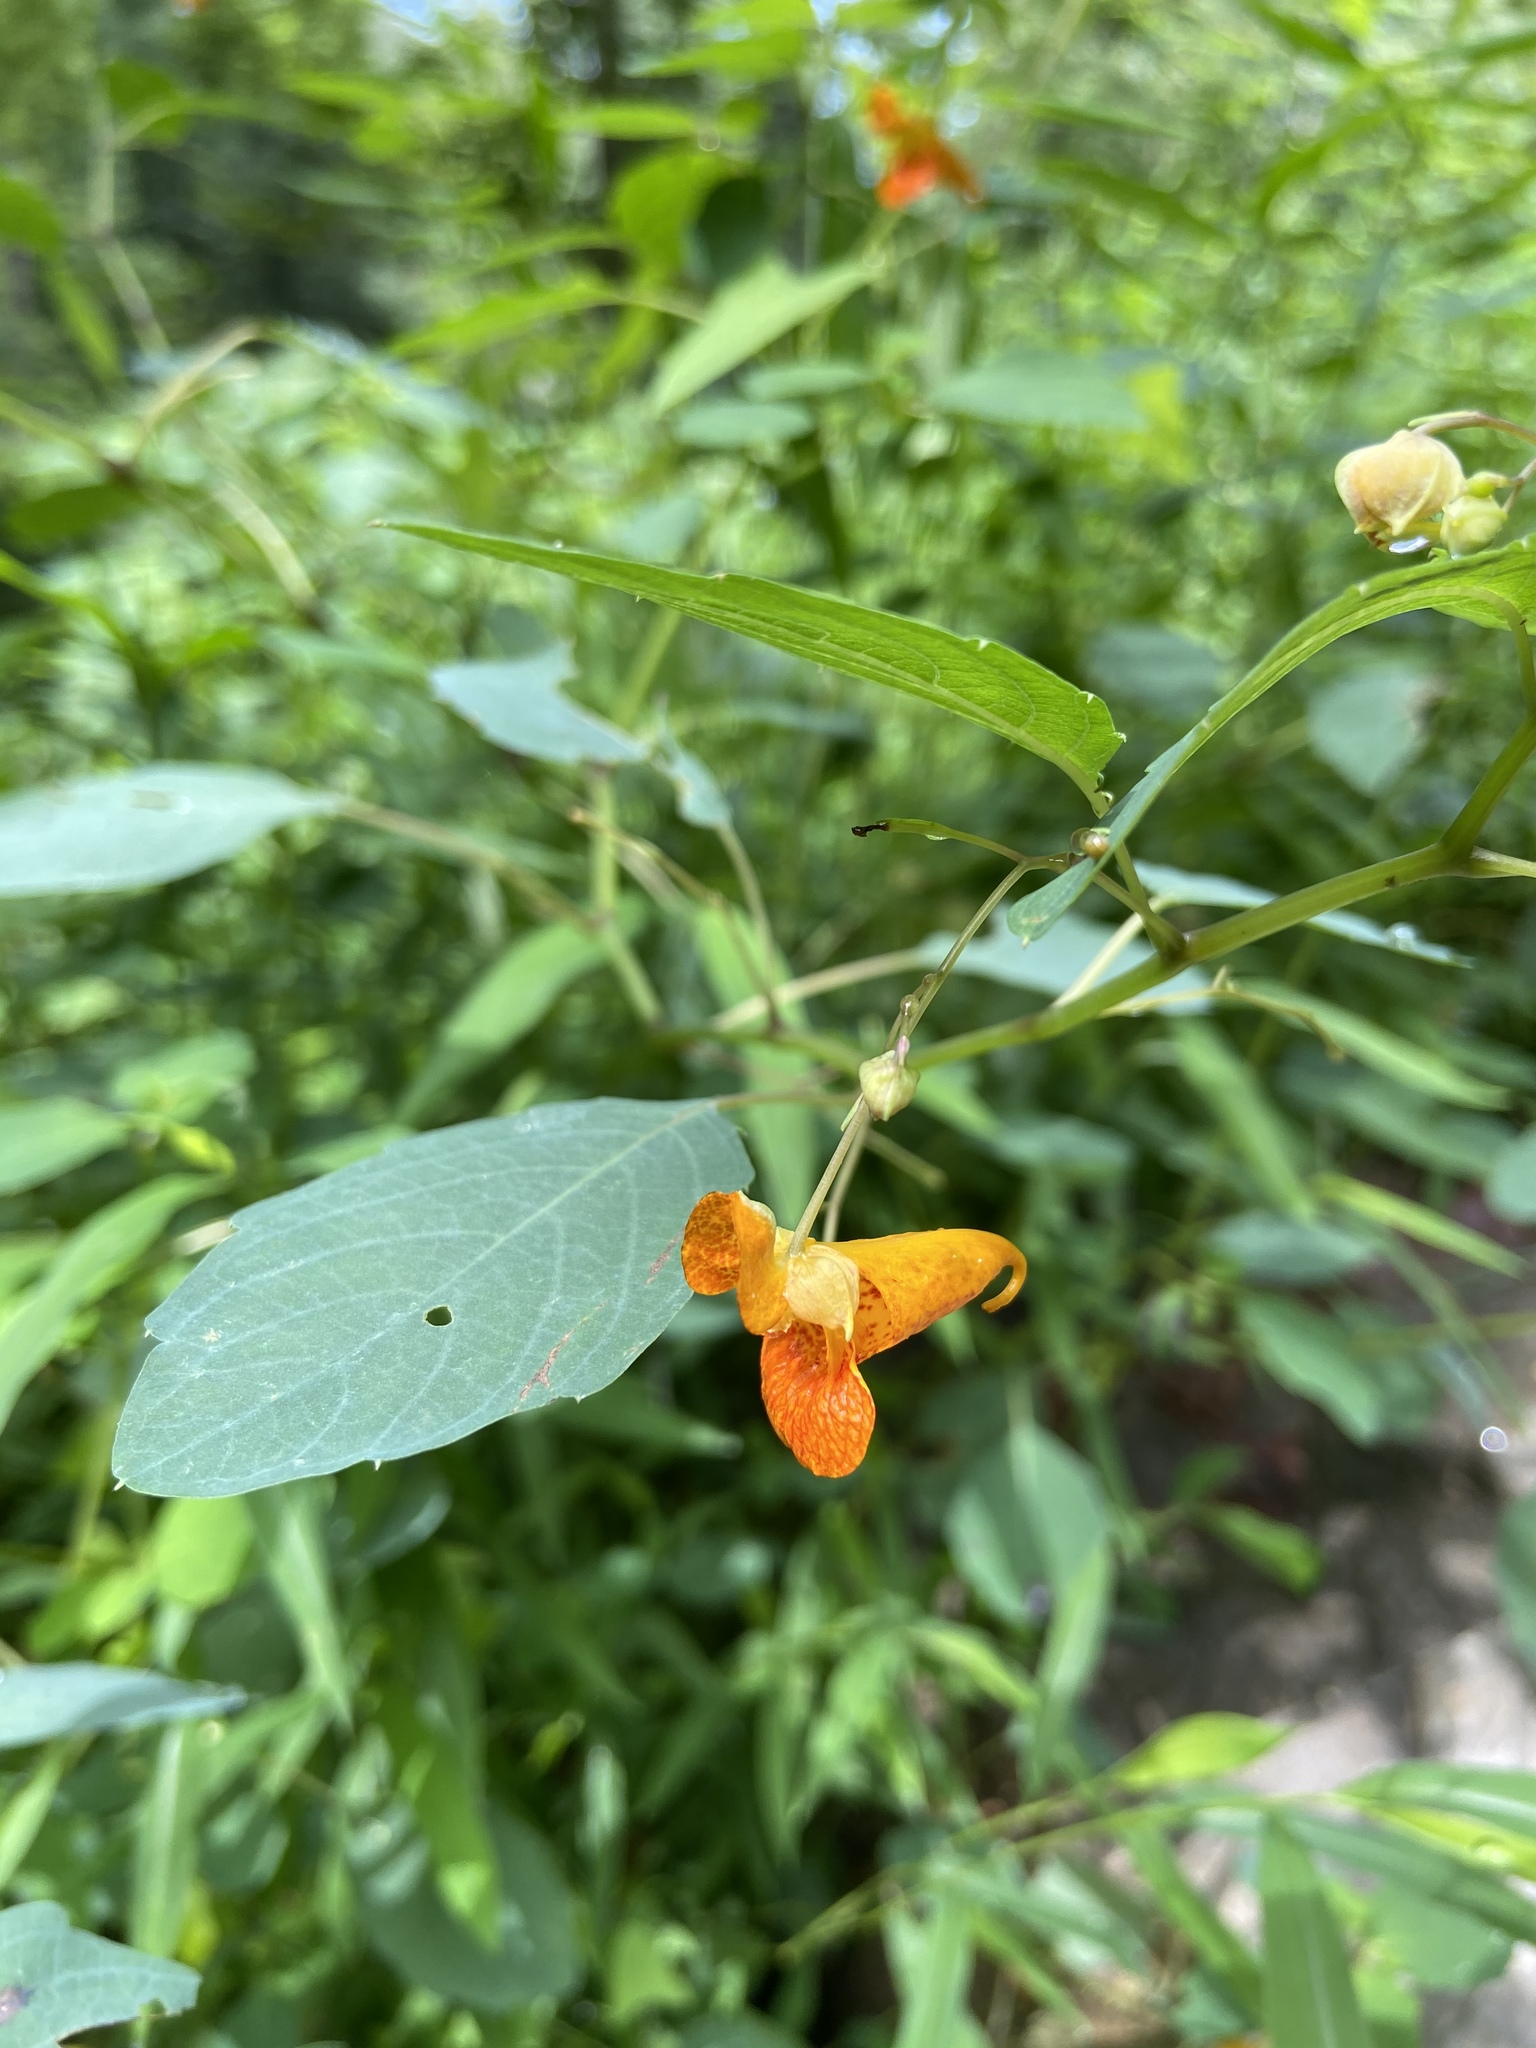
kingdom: Plantae
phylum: Tracheophyta
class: Magnoliopsida
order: Ericales
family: Balsaminaceae
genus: Impatiens
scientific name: Impatiens capensis
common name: Orange balsam
